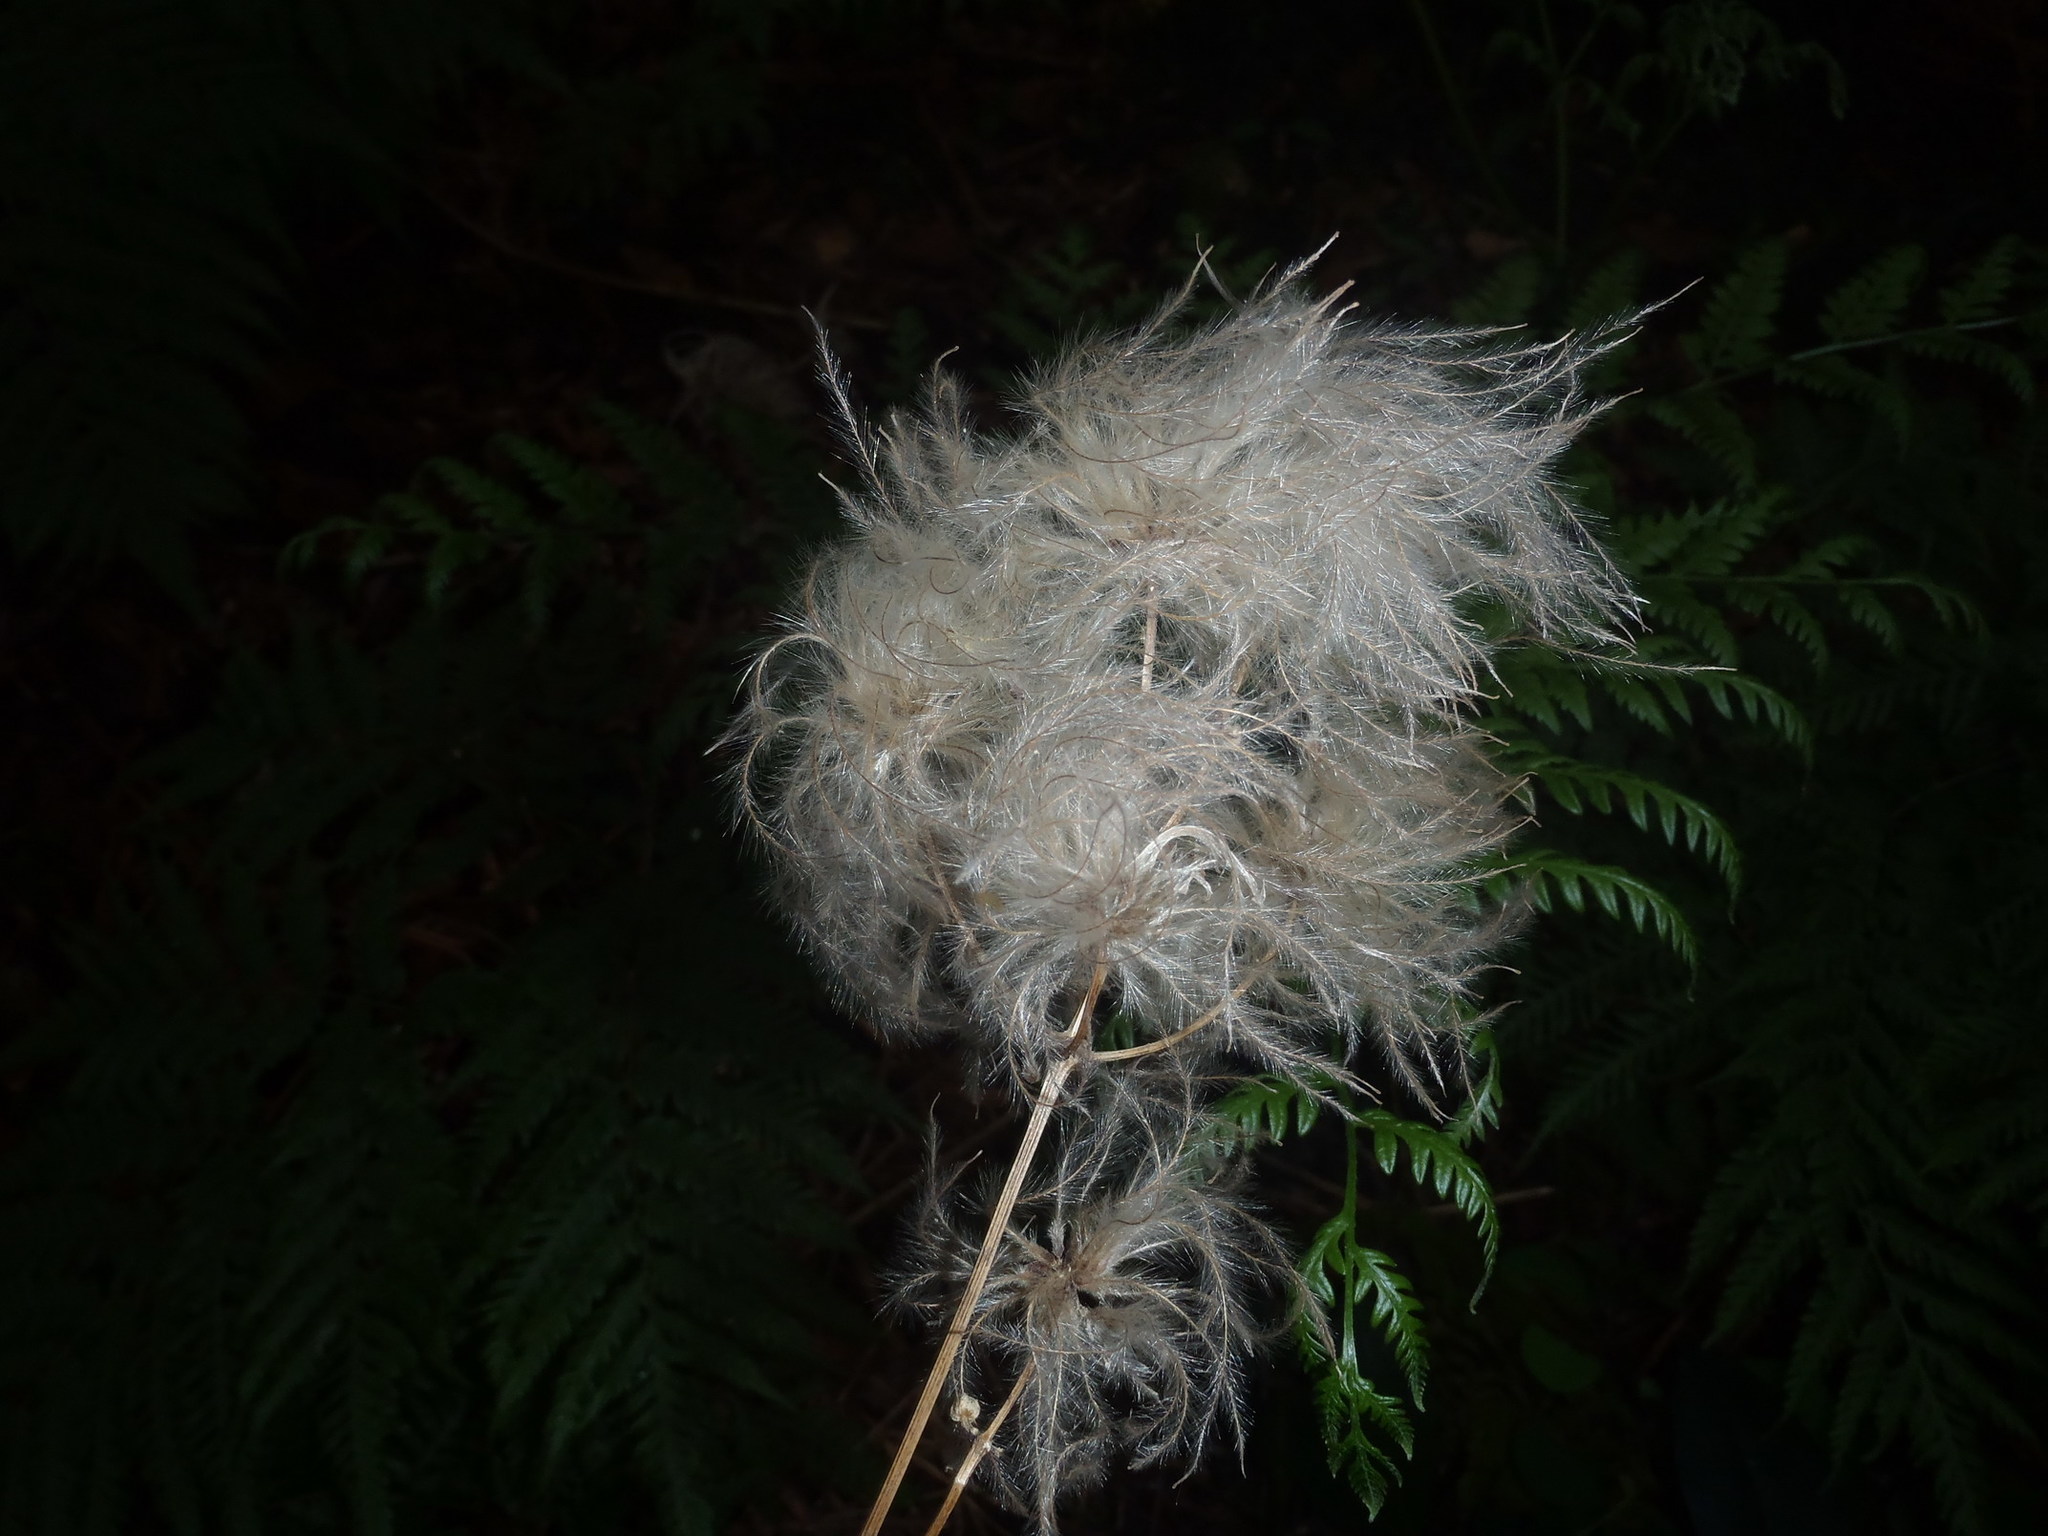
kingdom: Plantae
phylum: Tracheophyta
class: Magnoliopsida
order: Ranunculales
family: Ranunculaceae
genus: Clematis
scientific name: Clematis brachiata
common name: Traveler's-joy
